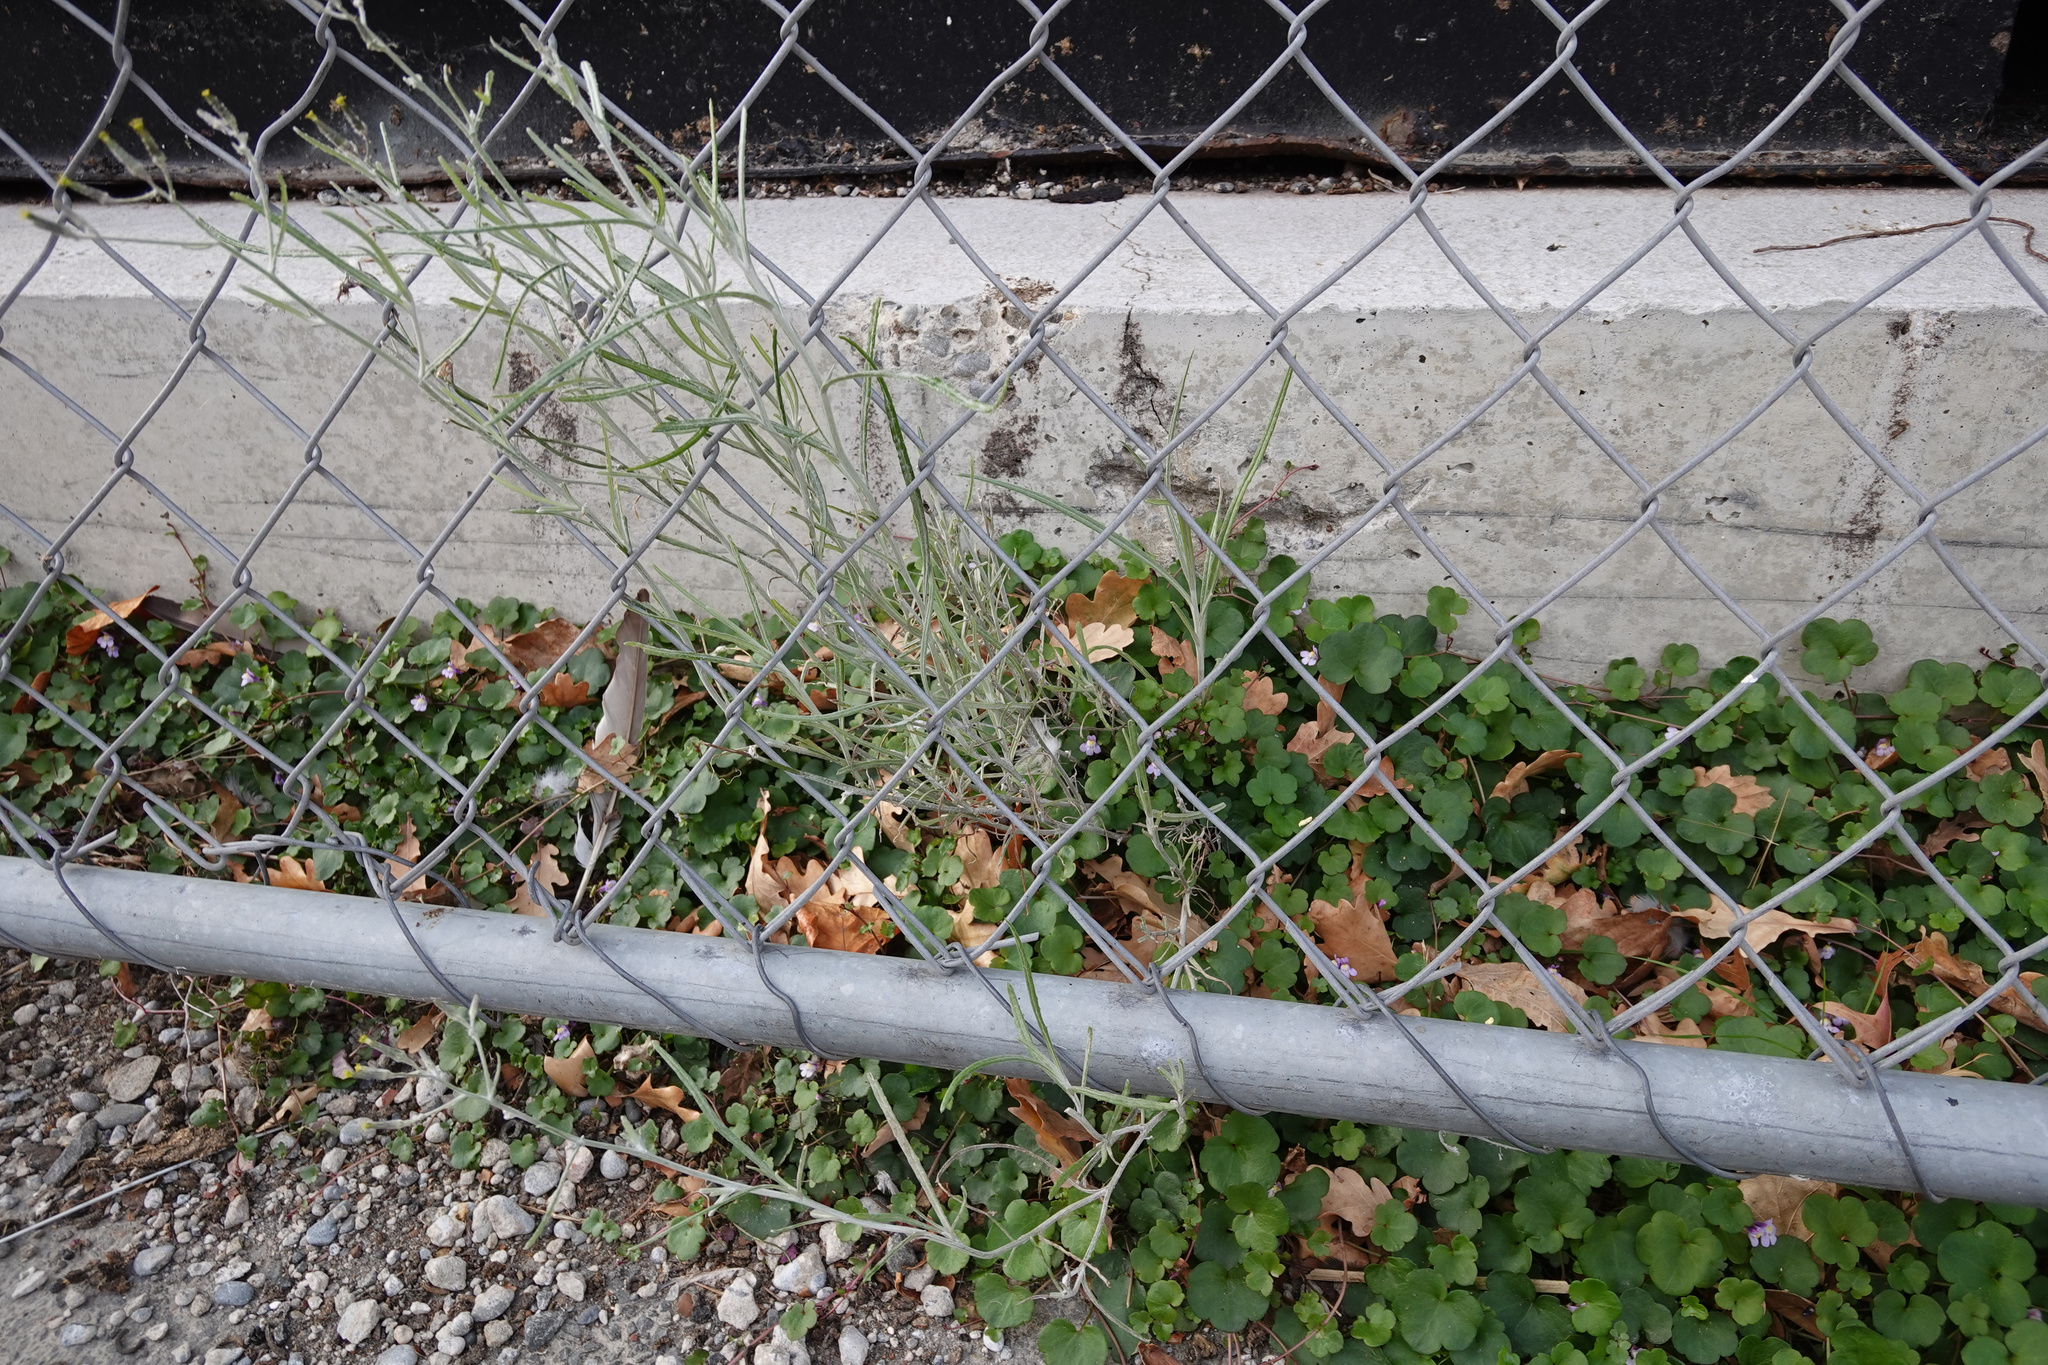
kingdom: Plantae
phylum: Tracheophyta
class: Magnoliopsida
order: Asterales
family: Asteraceae
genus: Senecio
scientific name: Senecio quadridentatus
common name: Cotton fireweed
